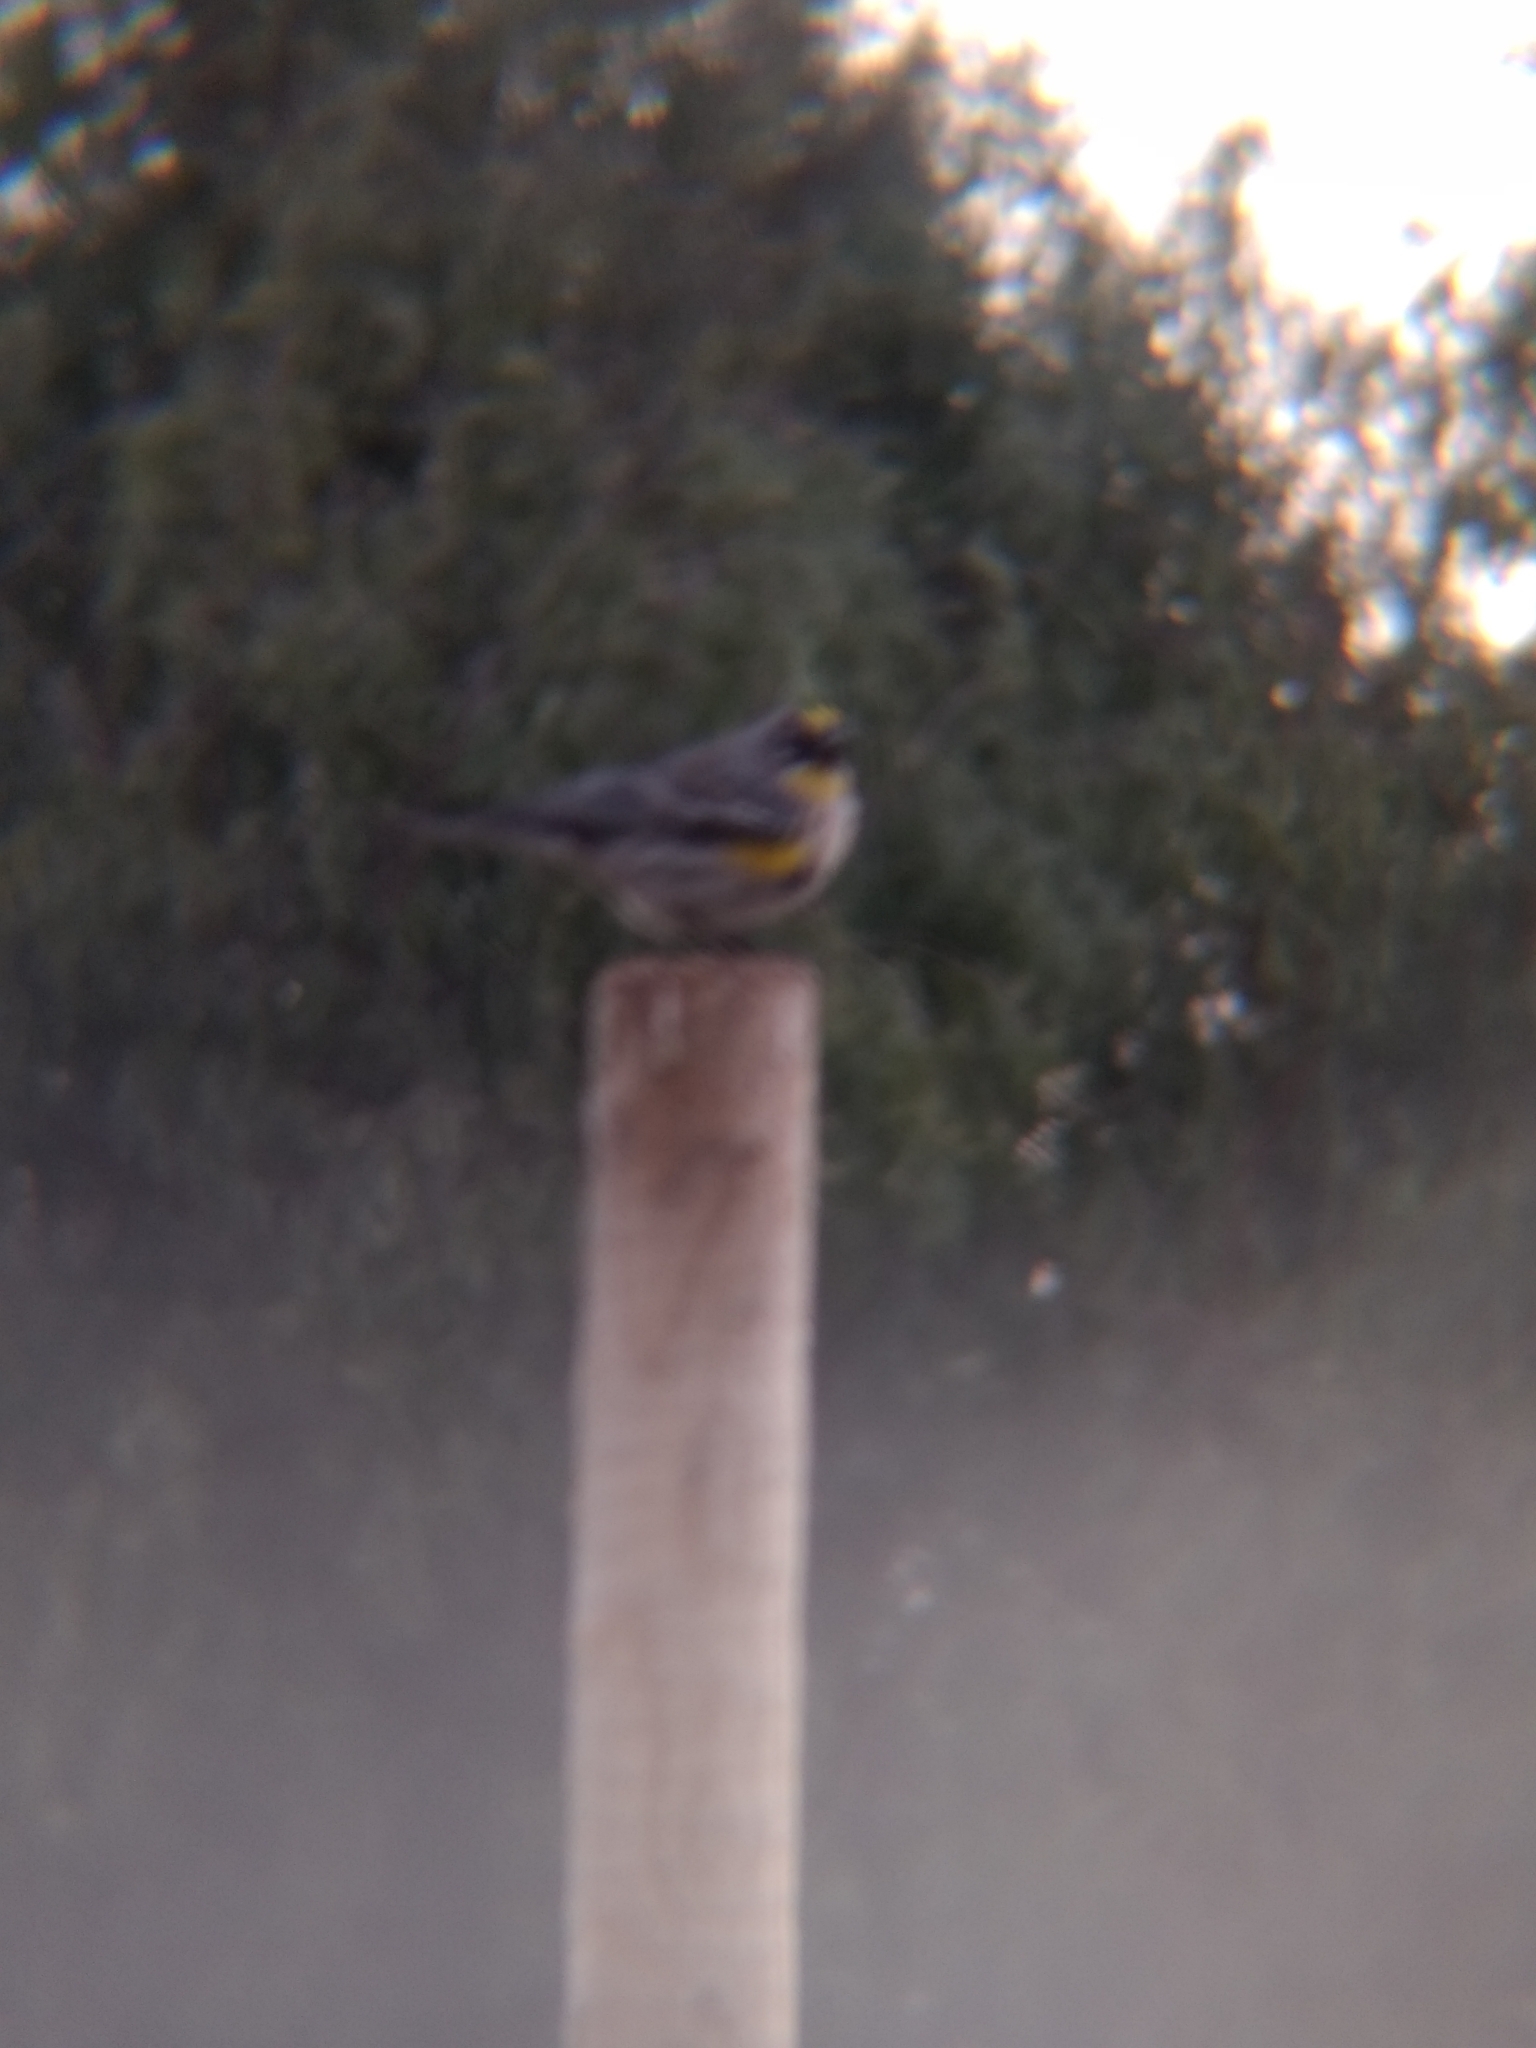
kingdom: Animalia
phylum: Chordata
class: Aves
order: Passeriformes
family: Parulidae
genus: Setophaga
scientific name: Setophaga coronata
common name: Myrtle warbler
